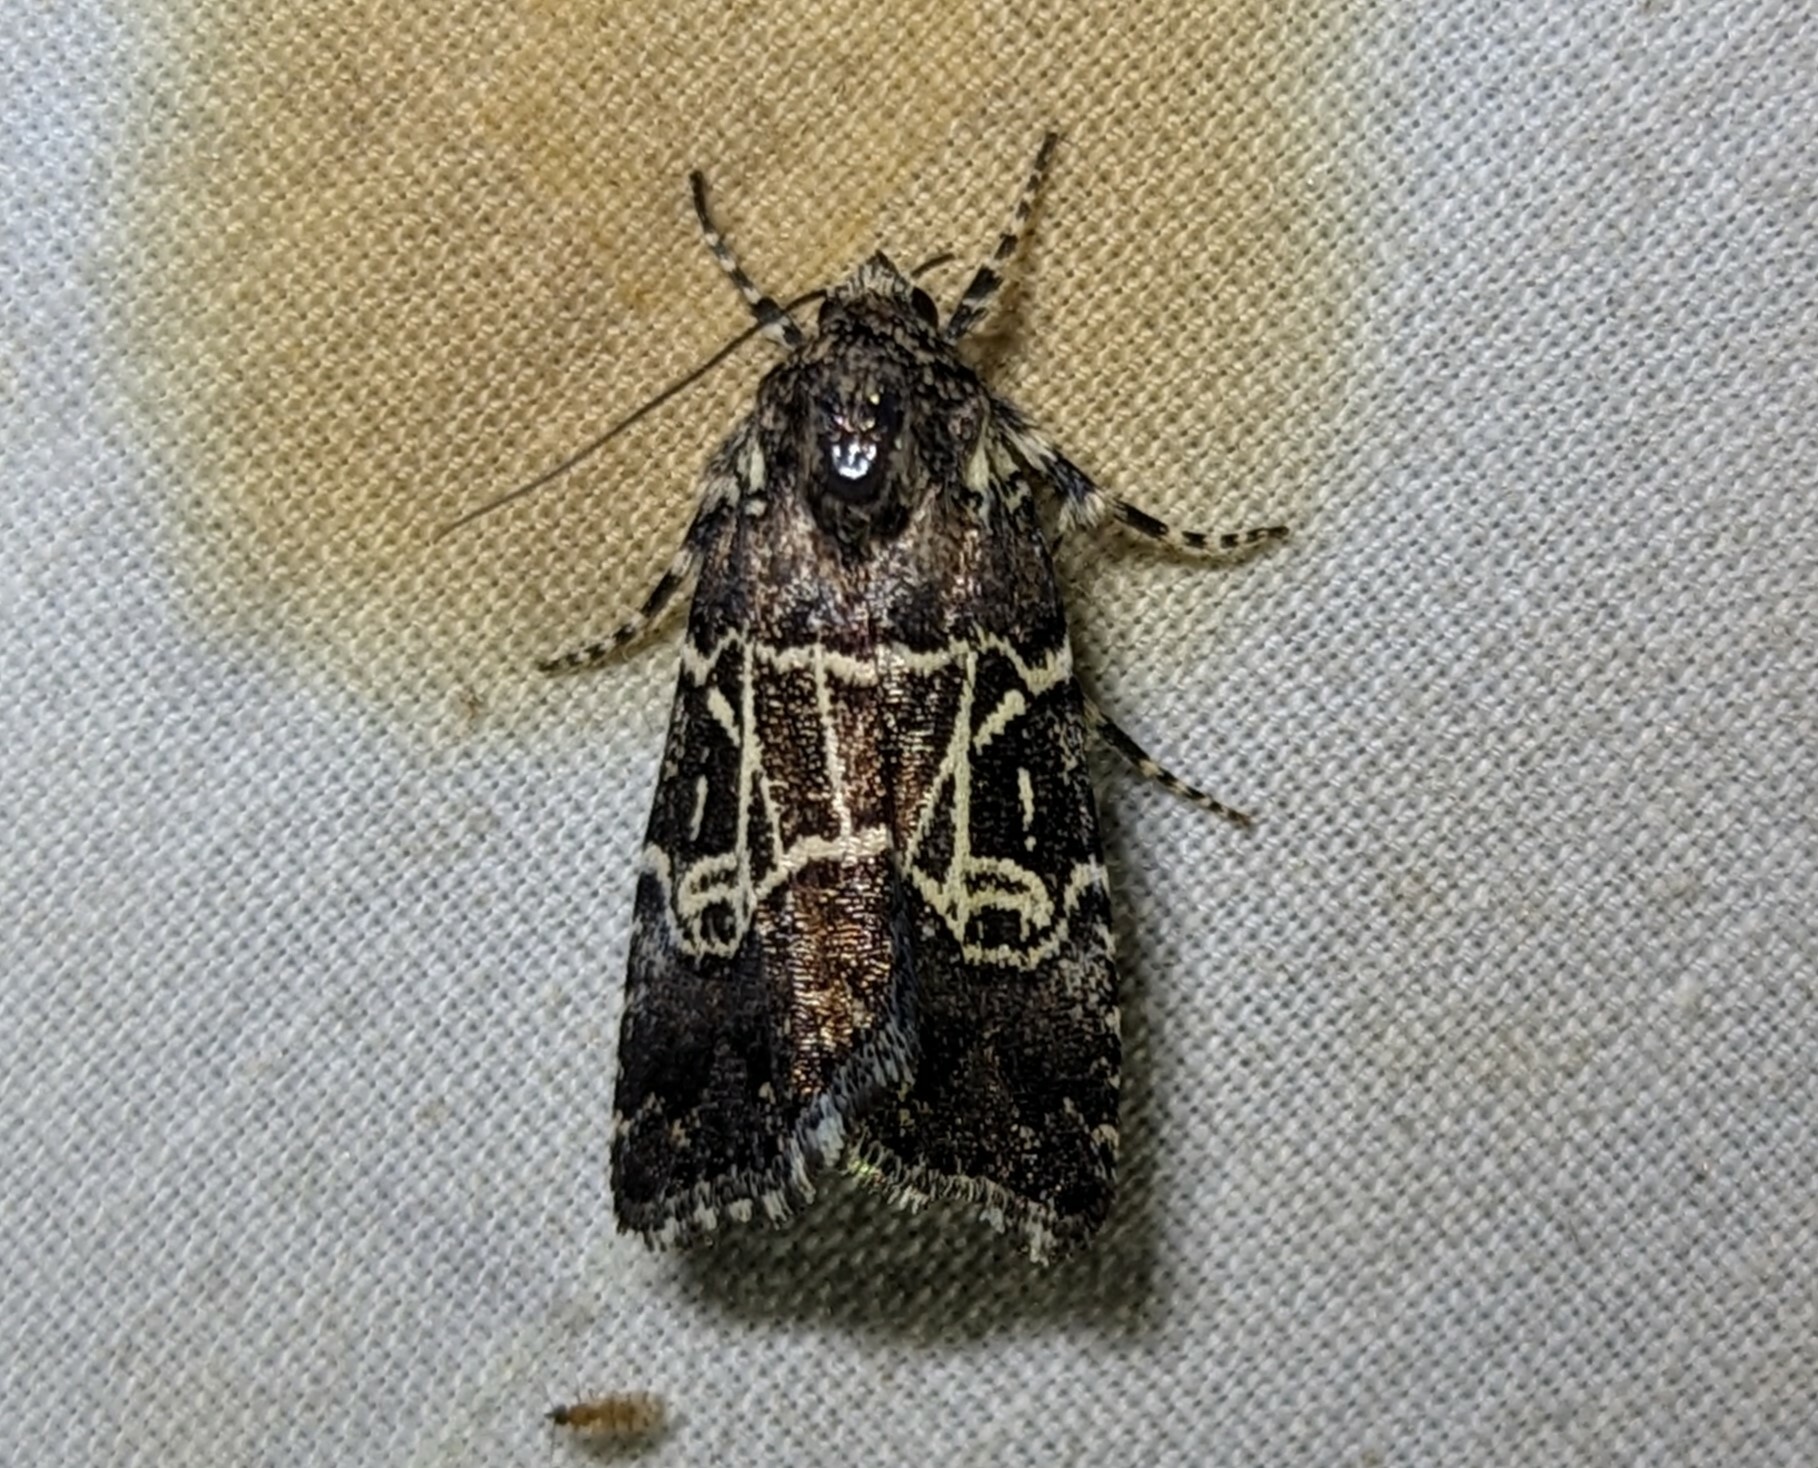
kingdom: Animalia
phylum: Arthropoda
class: Insecta
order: Lepidoptera
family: Noctuidae
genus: Elaphria
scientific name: Elaphria acaste
